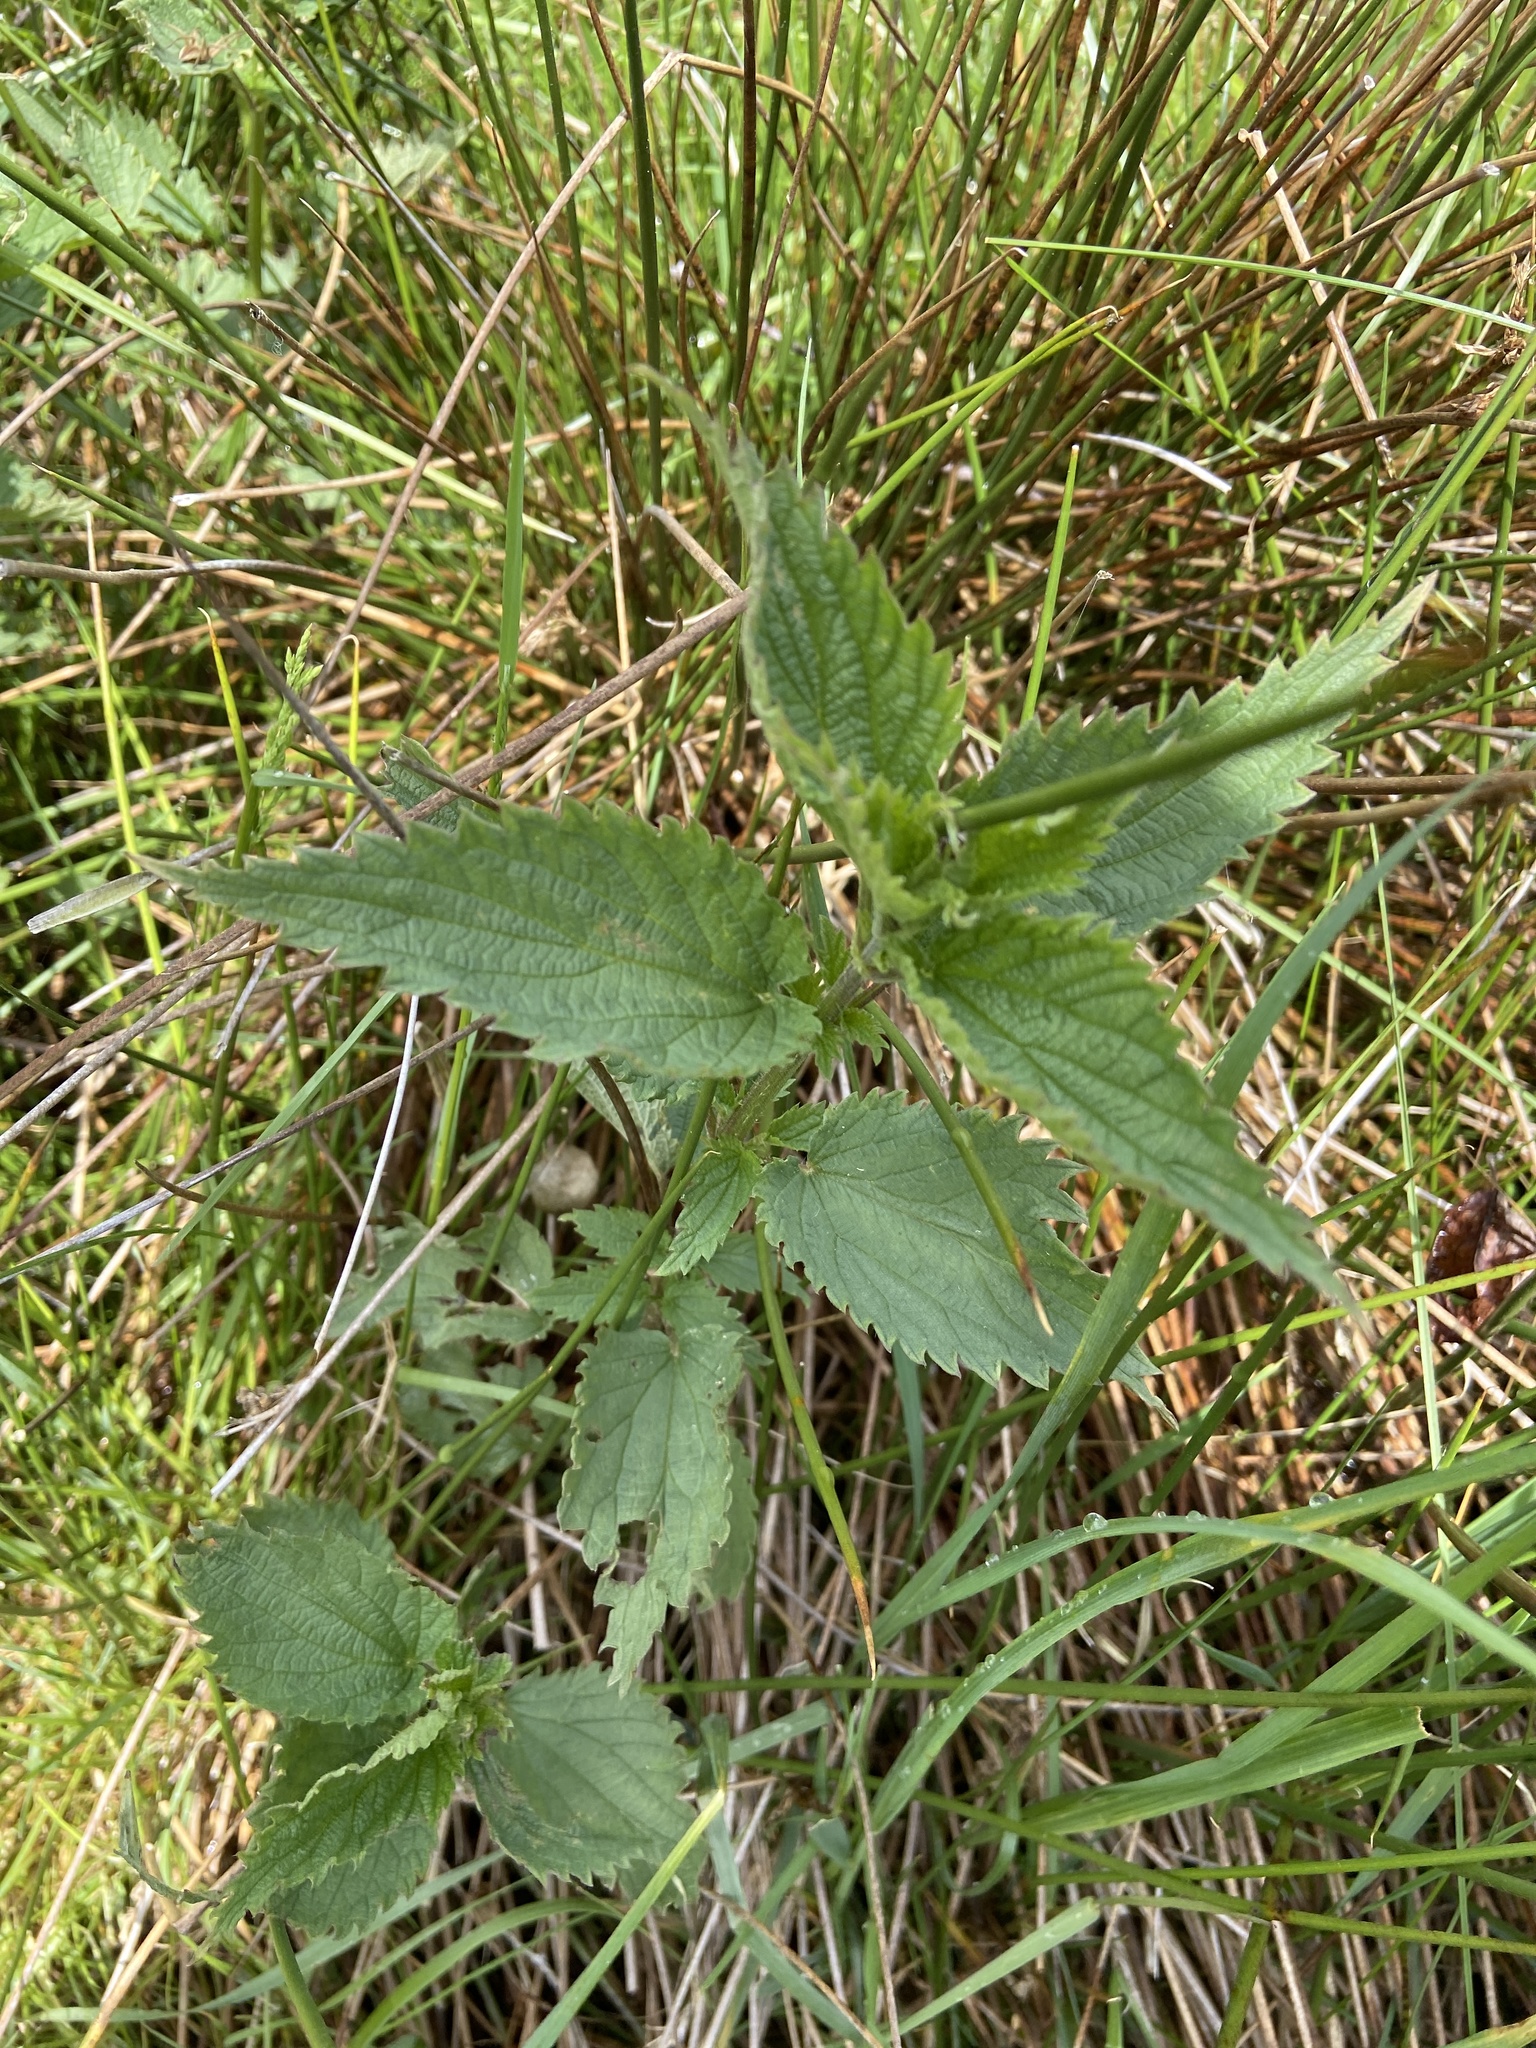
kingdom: Plantae
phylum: Tracheophyta
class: Magnoliopsida
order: Rosales
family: Urticaceae
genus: Urtica
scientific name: Urtica dioica
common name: Common nettle
